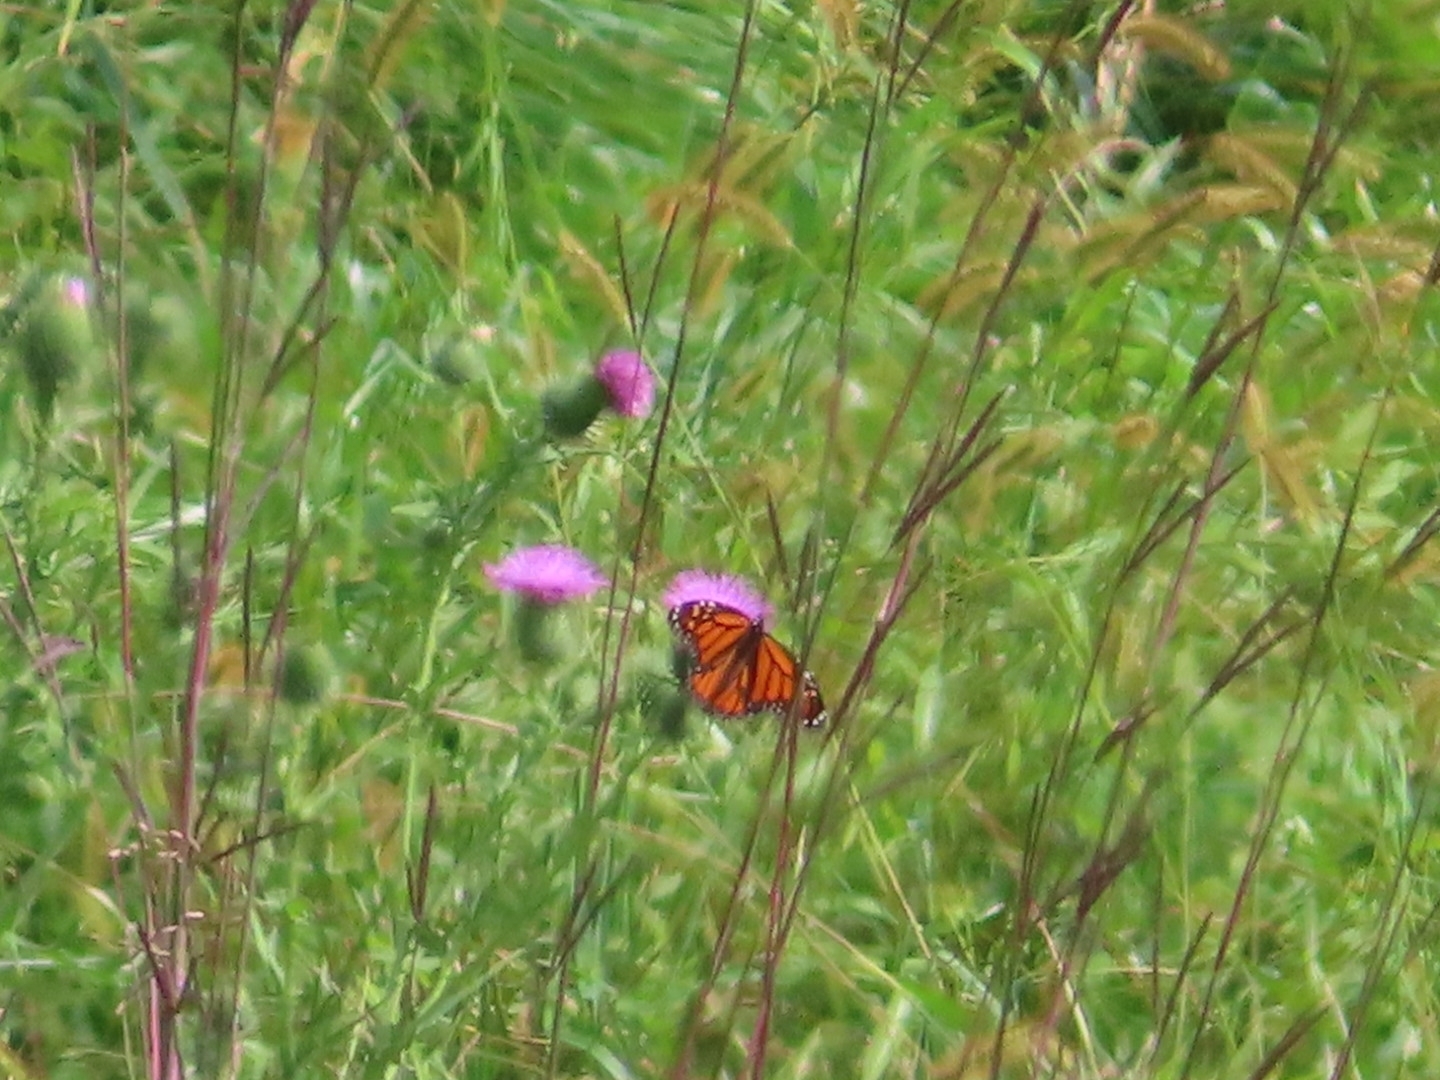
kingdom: Animalia
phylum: Arthropoda
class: Insecta
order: Lepidoptera
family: Nymphalidae
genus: Danaus
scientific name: Danaus plexippus
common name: Monarch
